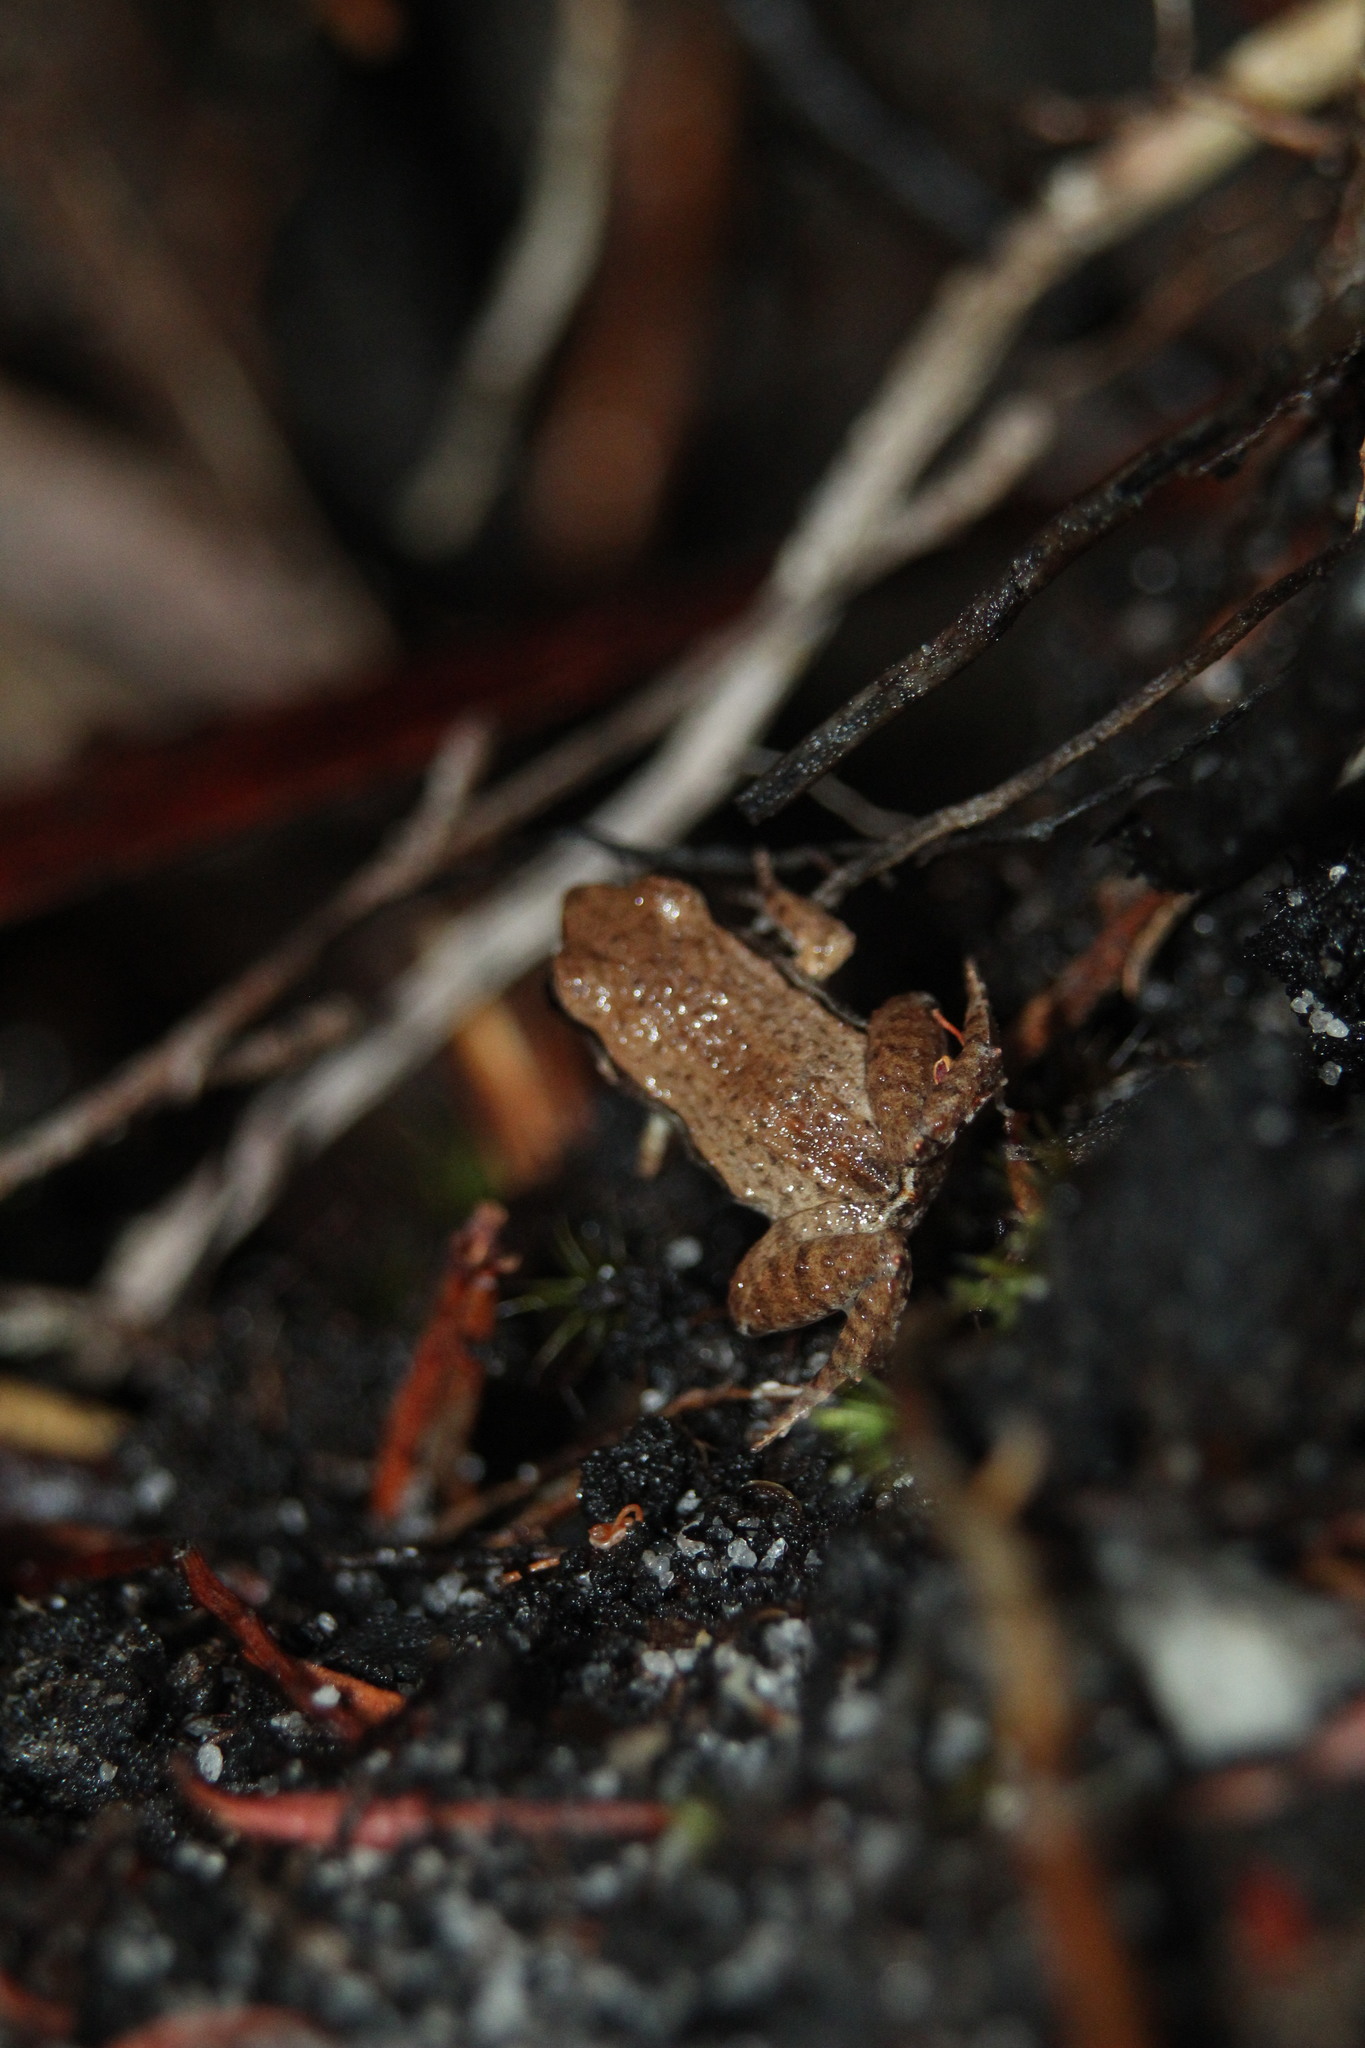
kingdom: Animalia
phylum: Chordata
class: Amphibia
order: Anura
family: Myobatrachidae
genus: Geocrinia
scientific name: Geocrinia leai
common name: Lea’s frog
